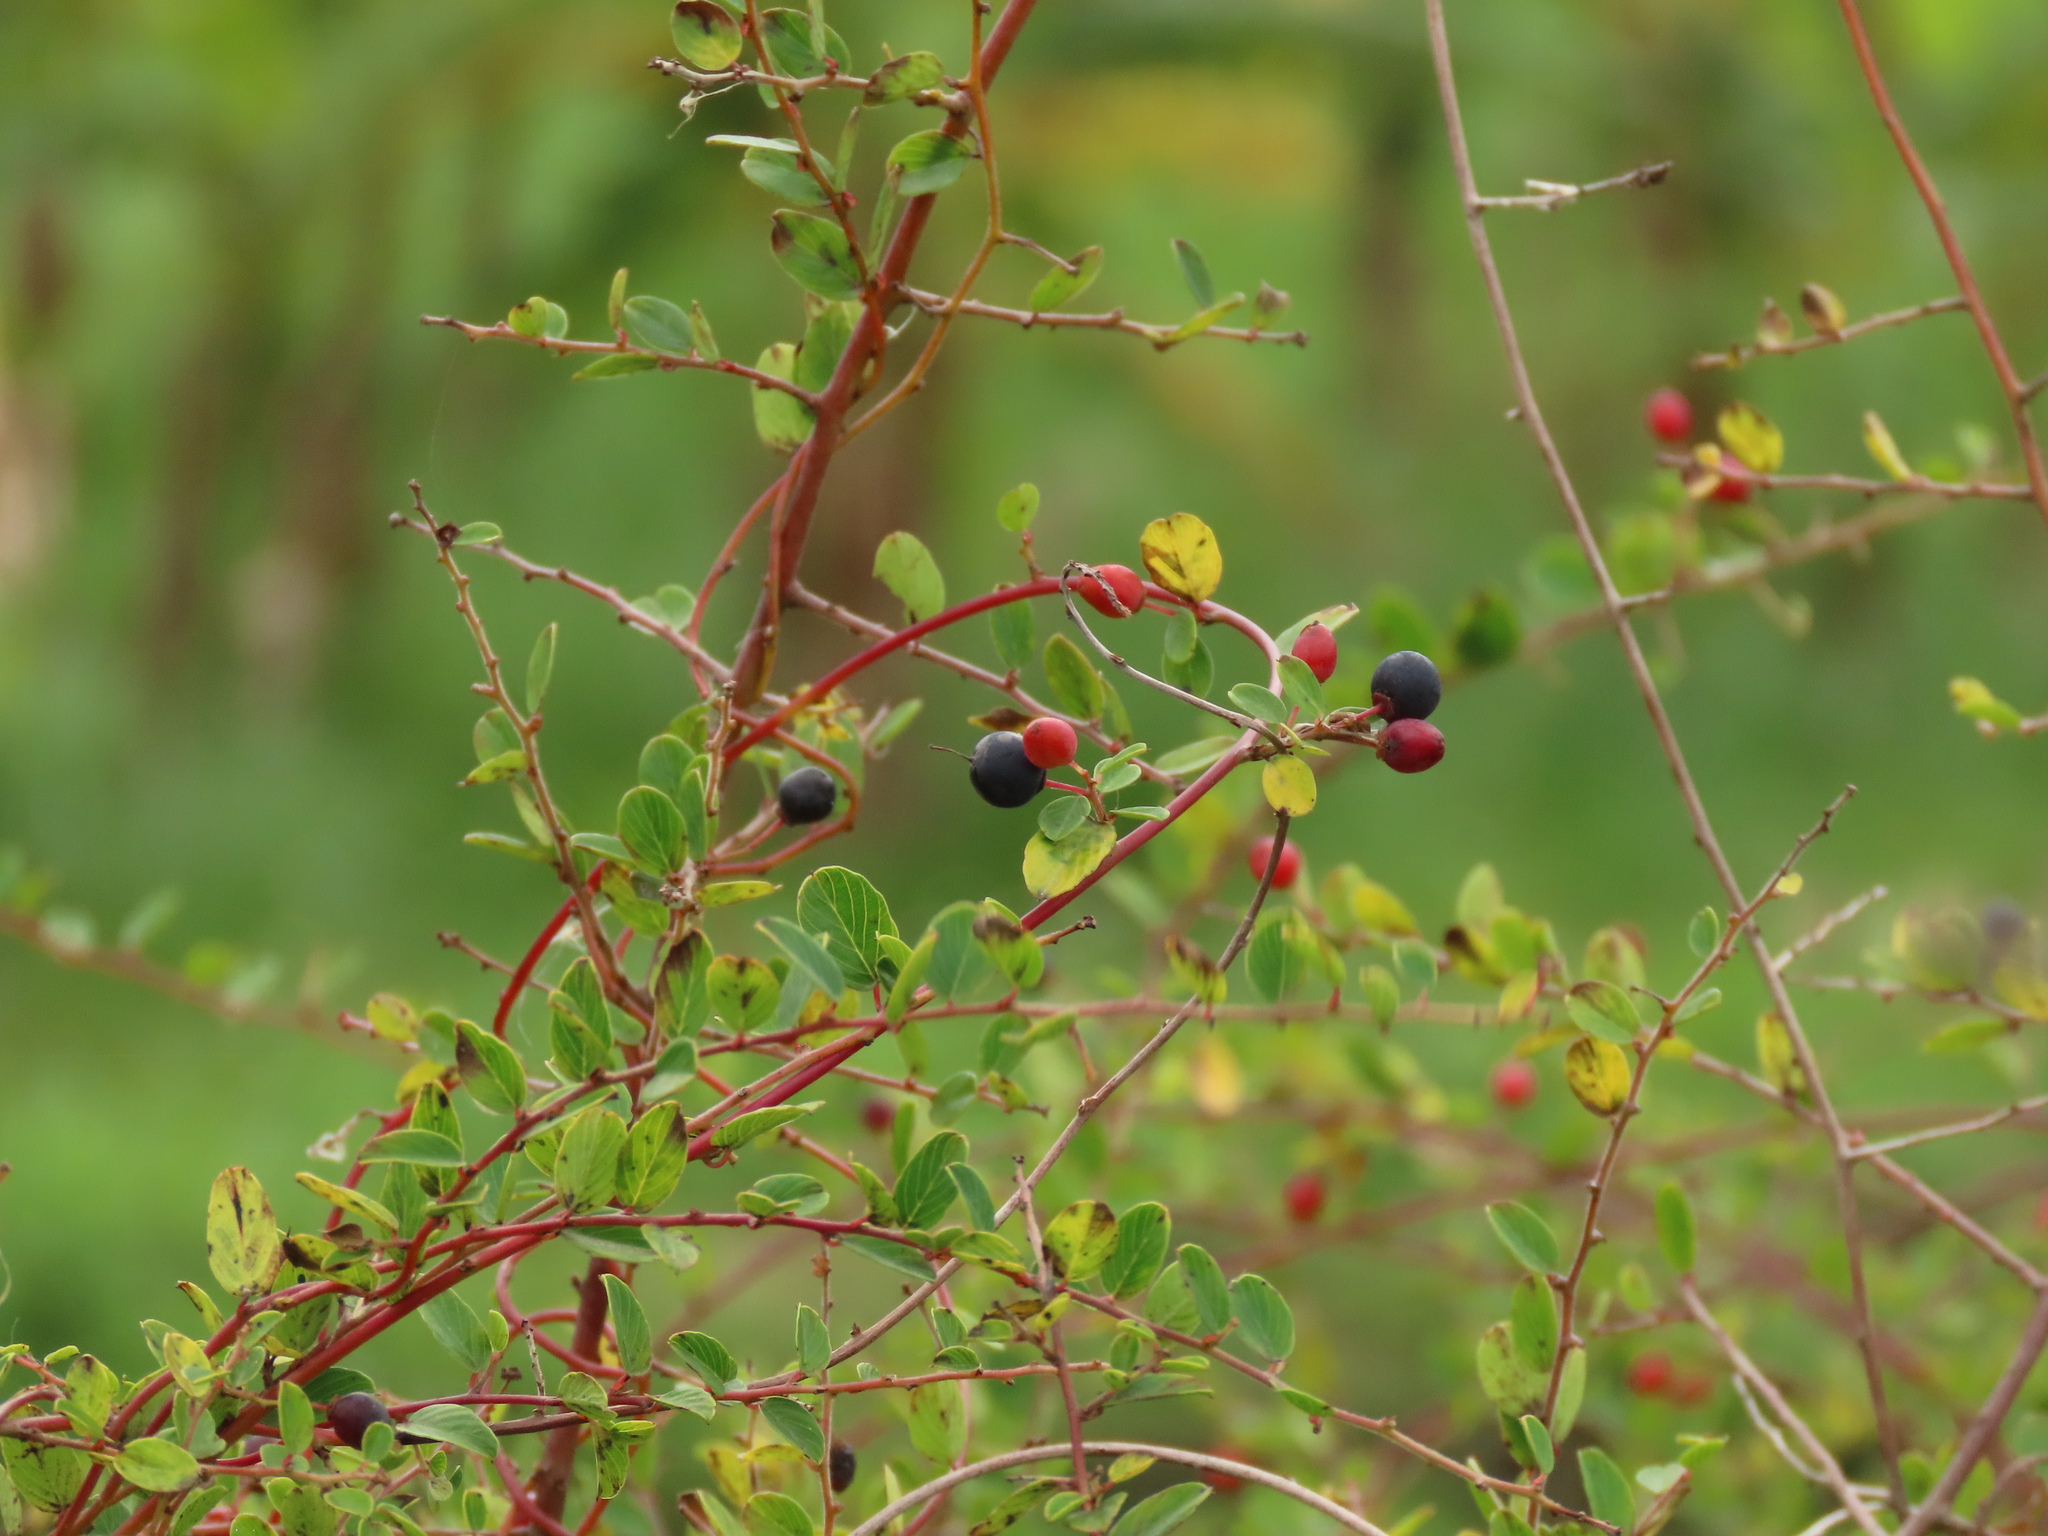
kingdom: Plantae
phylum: Tracheophyta
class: Magnoliopsida
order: Rosales
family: Rhamnaceae
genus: Berchemia
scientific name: Berchemia lineata
